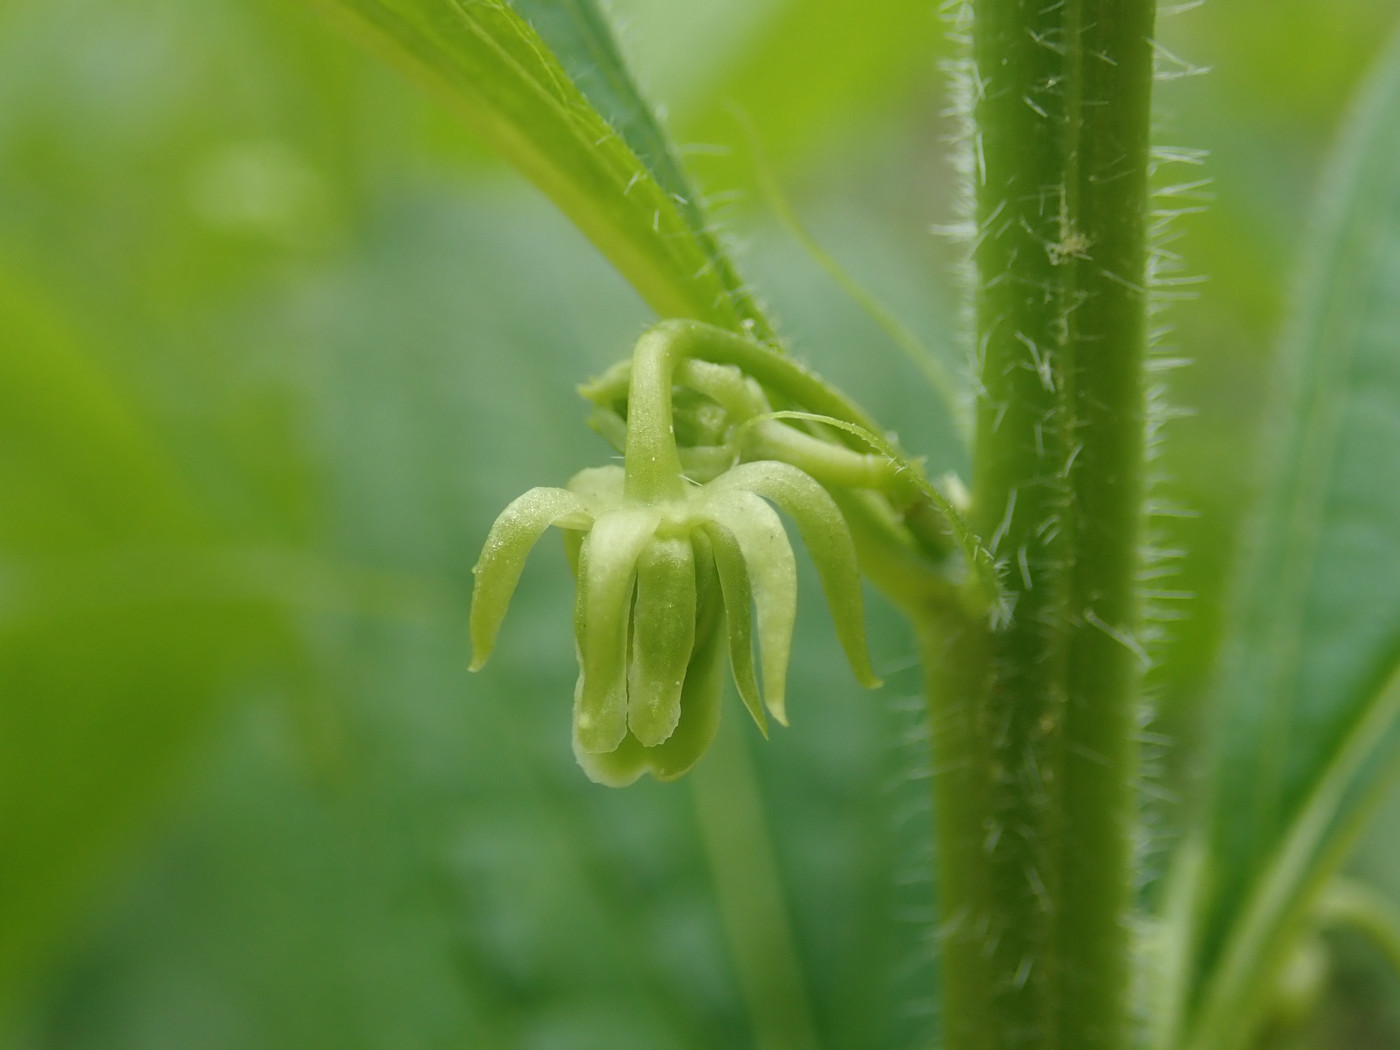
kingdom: Plantae
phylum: Tracheophyta
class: Magnoliopsida
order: Malpighiales
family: Violaceae
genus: Cubelium
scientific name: Cubelium concolor
